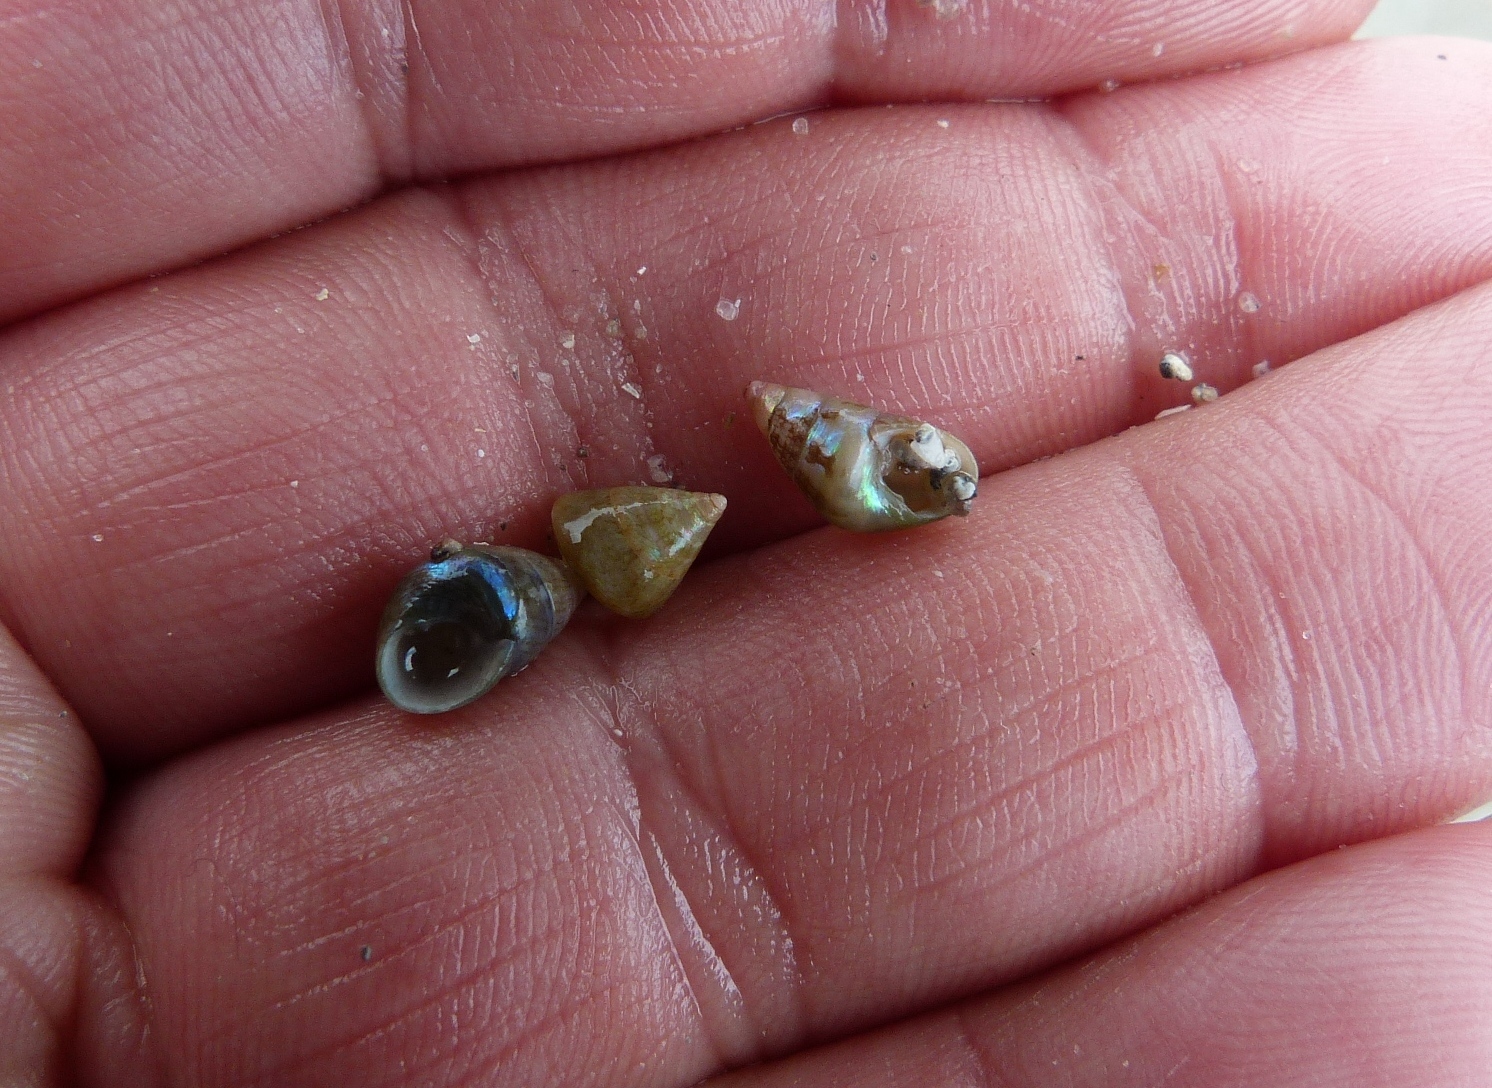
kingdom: Animalia
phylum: Mollusca
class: Gastropoda
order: Trochida
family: Trochidae
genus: Phasianotrochus
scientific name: Phasianotrochus irisodontes
